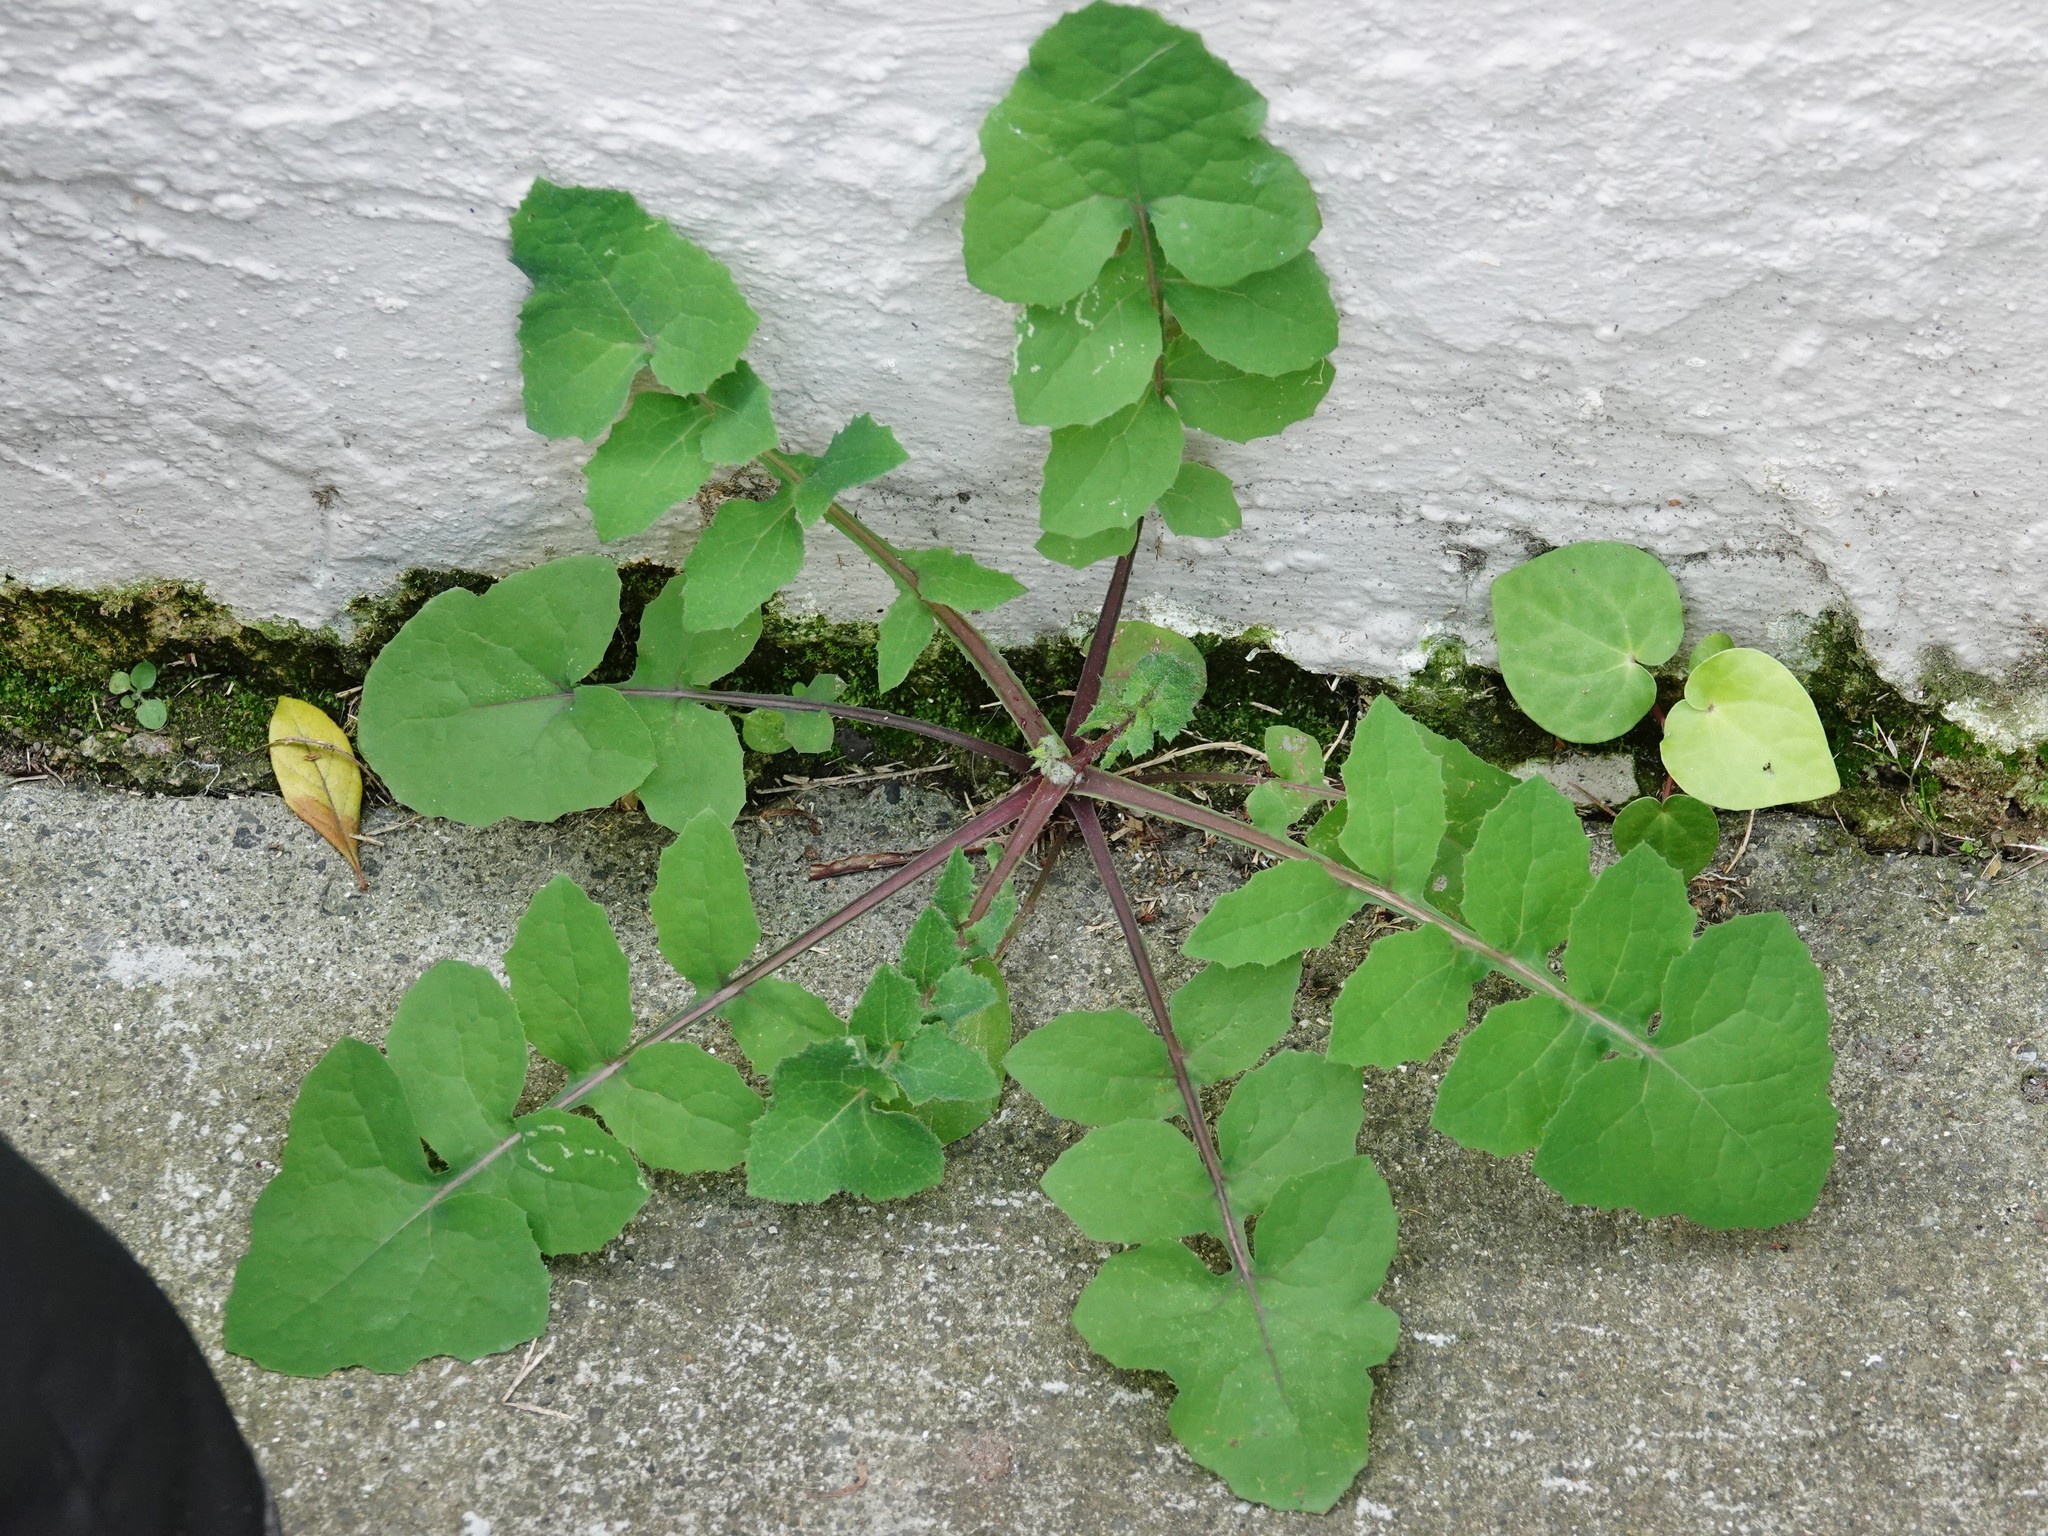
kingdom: Plantae
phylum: Tracheophyta
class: Magnoliopsida
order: Asterales
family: Asteraceae
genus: Sonchus
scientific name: Sonchus oleraceus
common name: Common sowthistle
